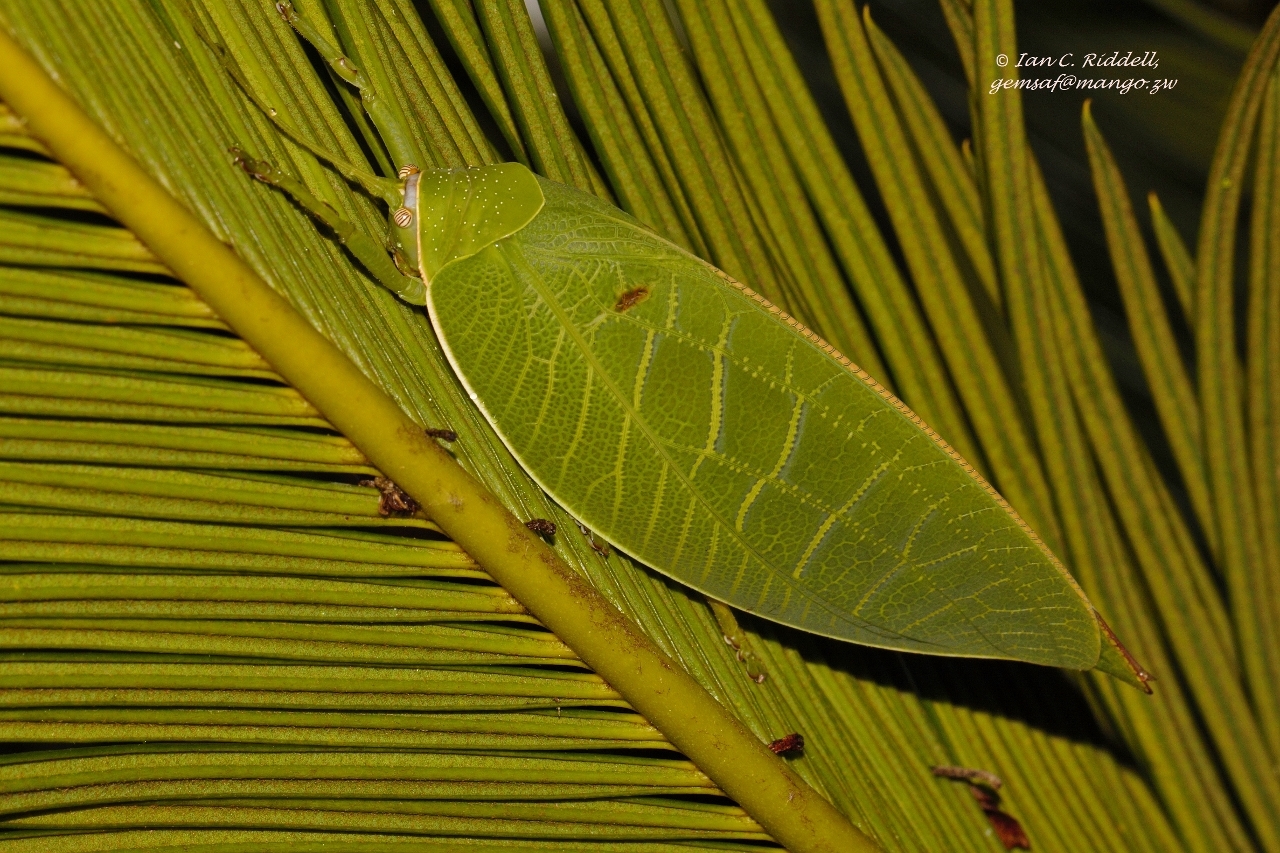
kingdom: Animalia
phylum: Arthropoda
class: Insecta
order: Orthoptera
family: Tettigoniidae
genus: Zabalius
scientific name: Zabalius ophthalmicus
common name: Blue-legged sylvan katydid
